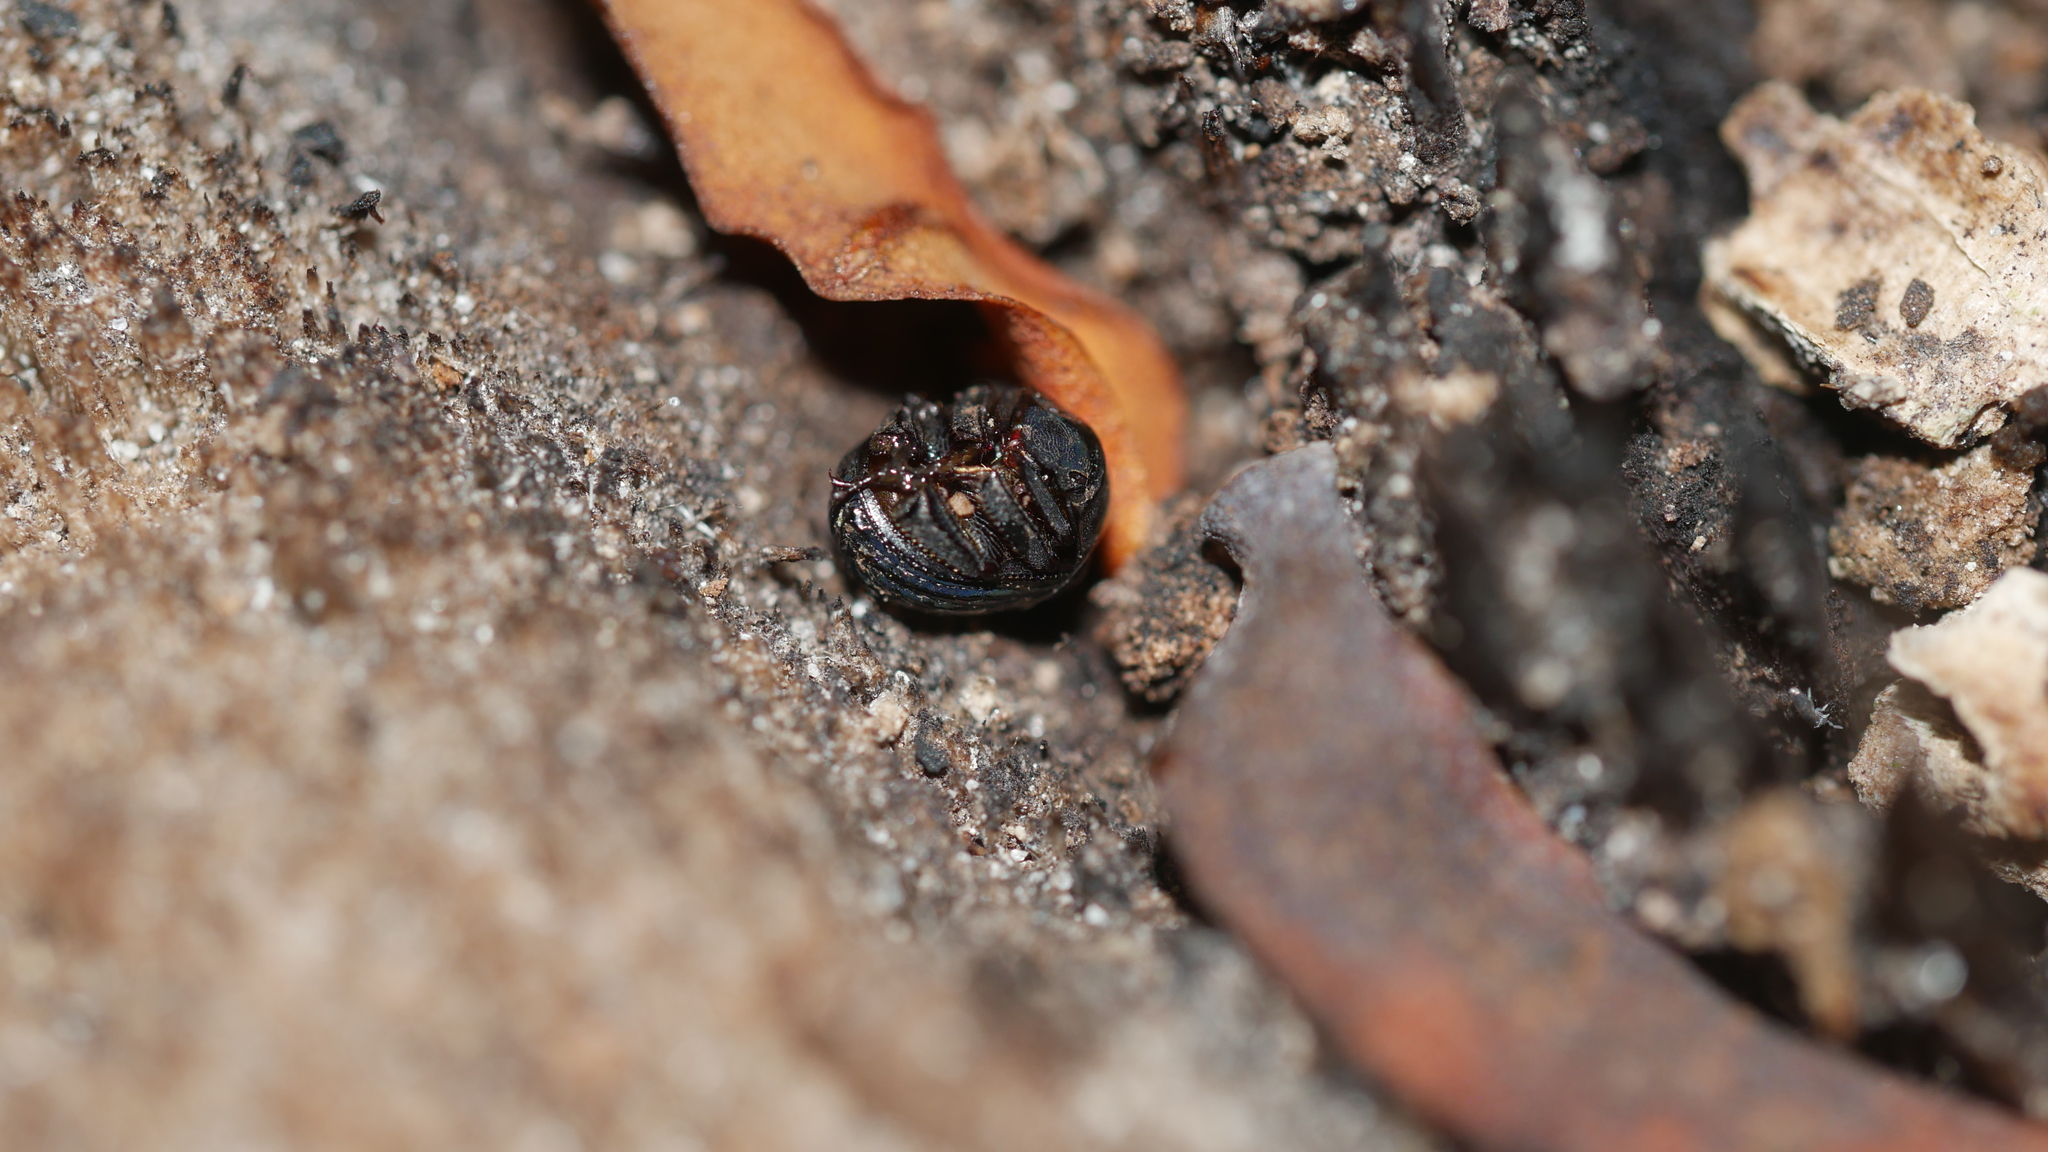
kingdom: Animalia
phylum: Arthropoda
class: Insecta
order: Coleoptera
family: Hybosoridae
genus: Germarostes
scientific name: Germarostes globosus
